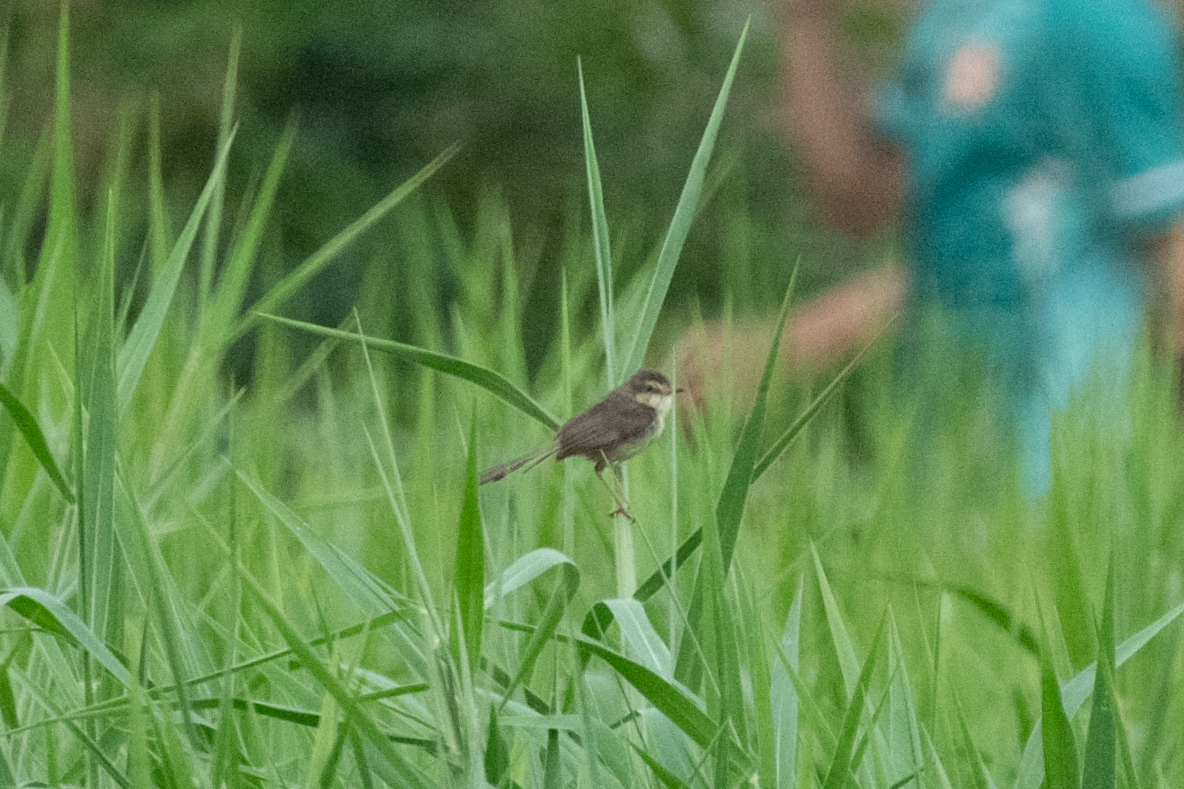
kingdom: Animalia
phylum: Chordata
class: Aves
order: Passeriformes
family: Cisticolidae
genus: Prinia
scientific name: Prinia inornata
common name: Plain prinia
